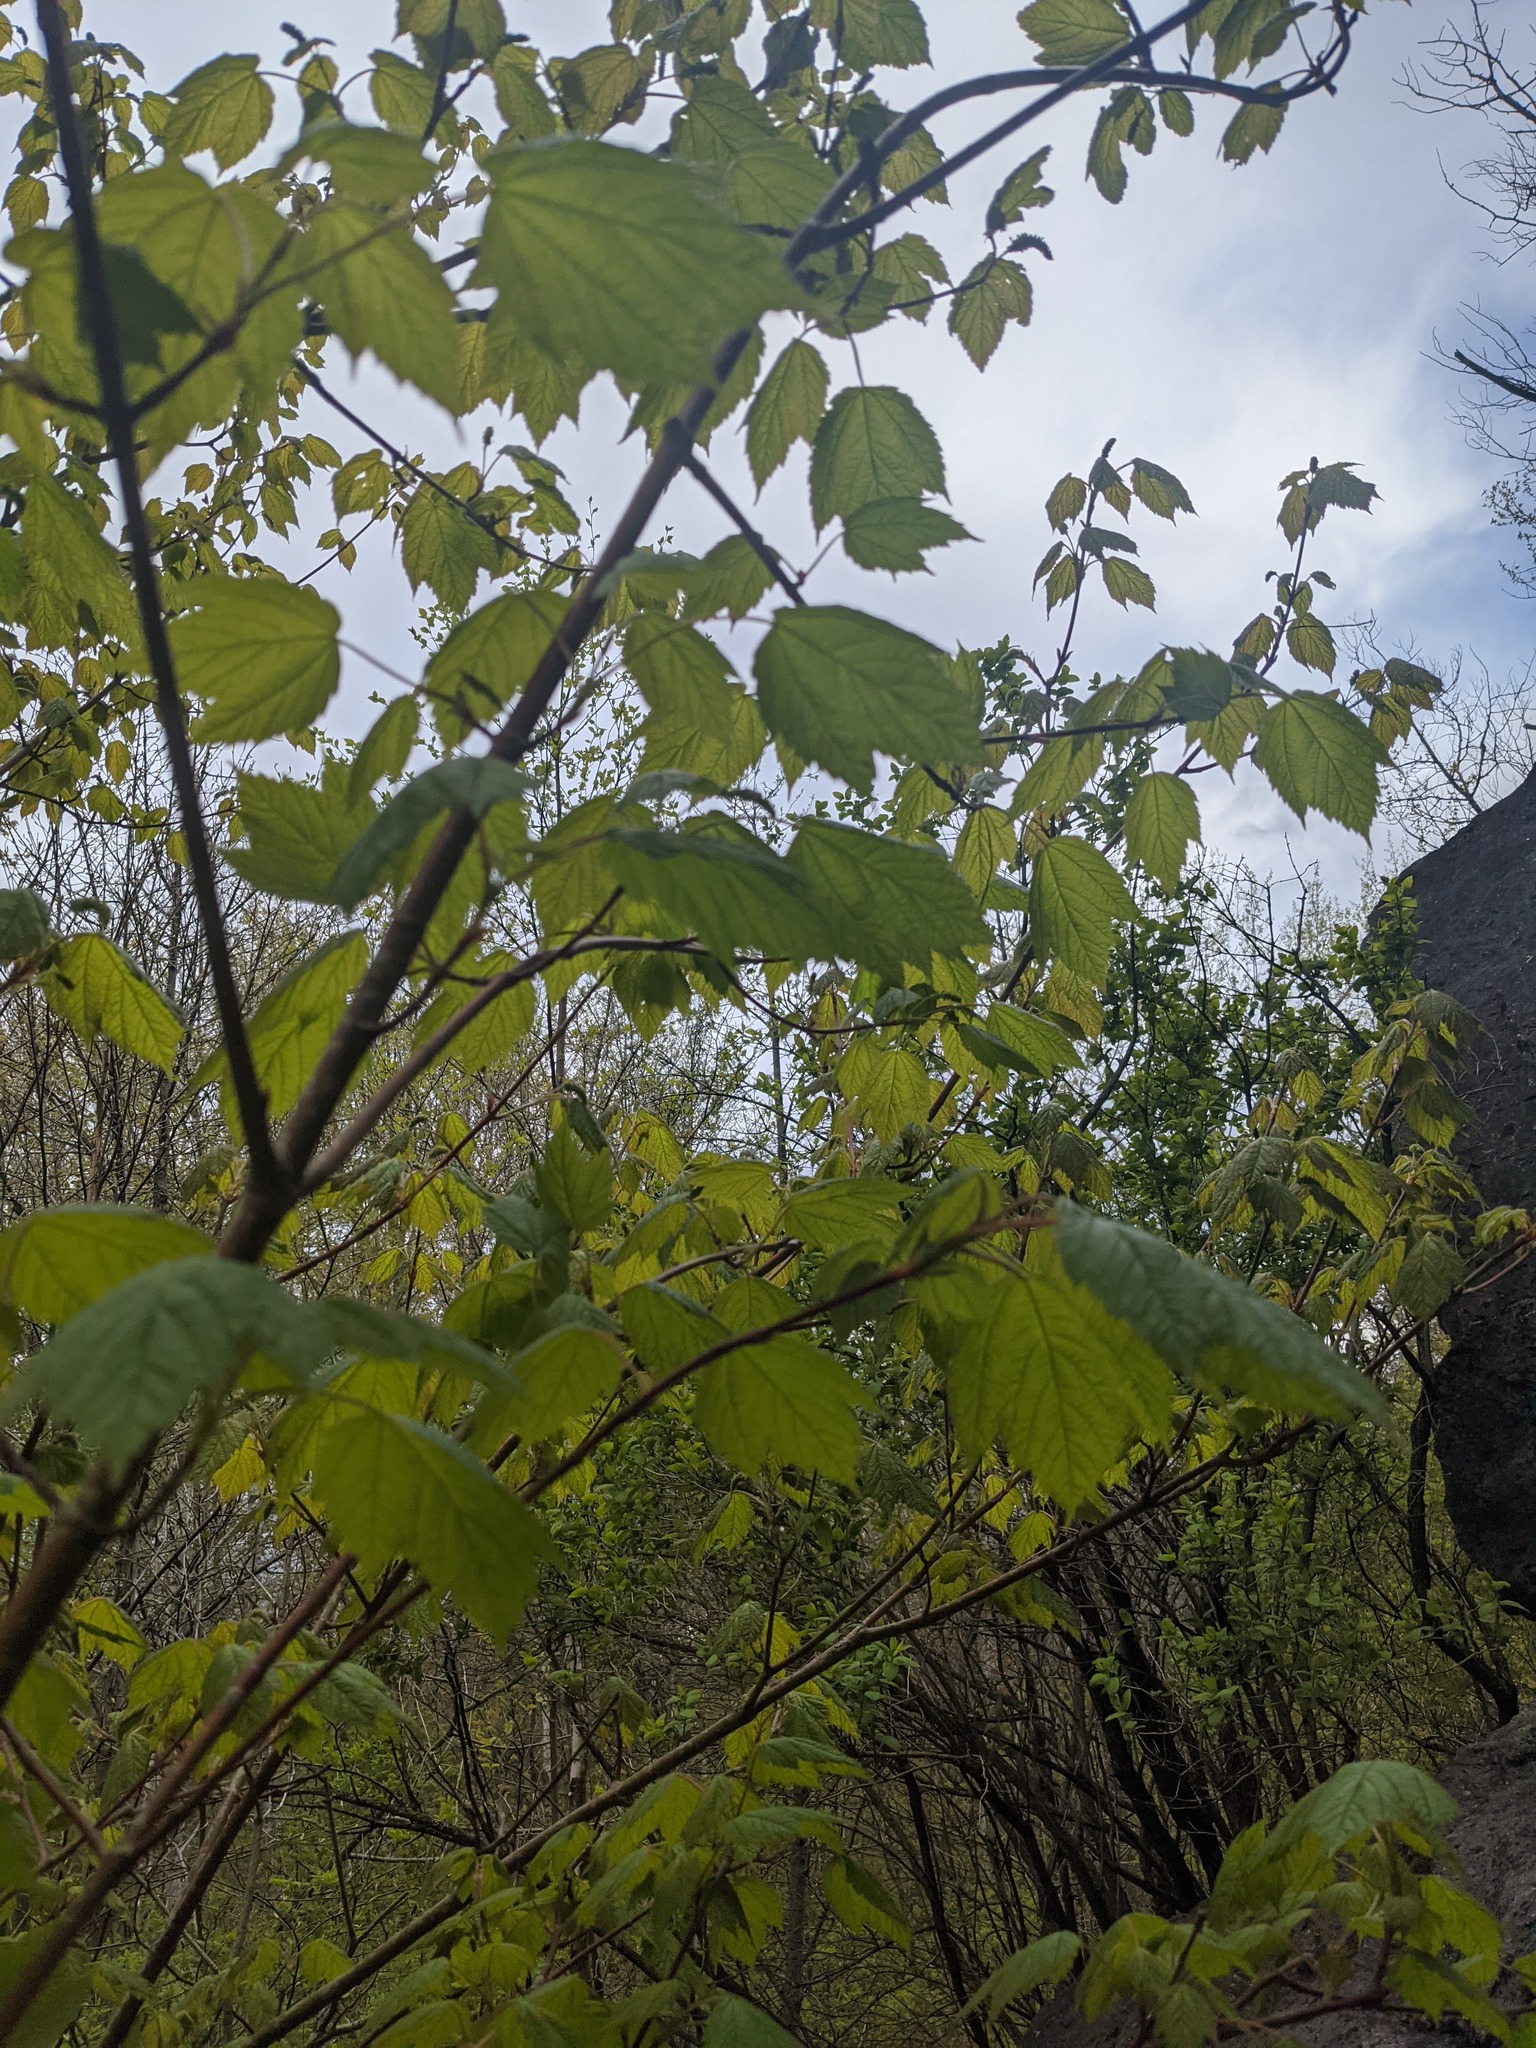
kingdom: Plantae
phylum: Tracheophyta
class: Magnoliopsida
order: Sapindales
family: Sapindaceae
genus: Acer
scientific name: Acer spicatum
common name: Mountain maple
